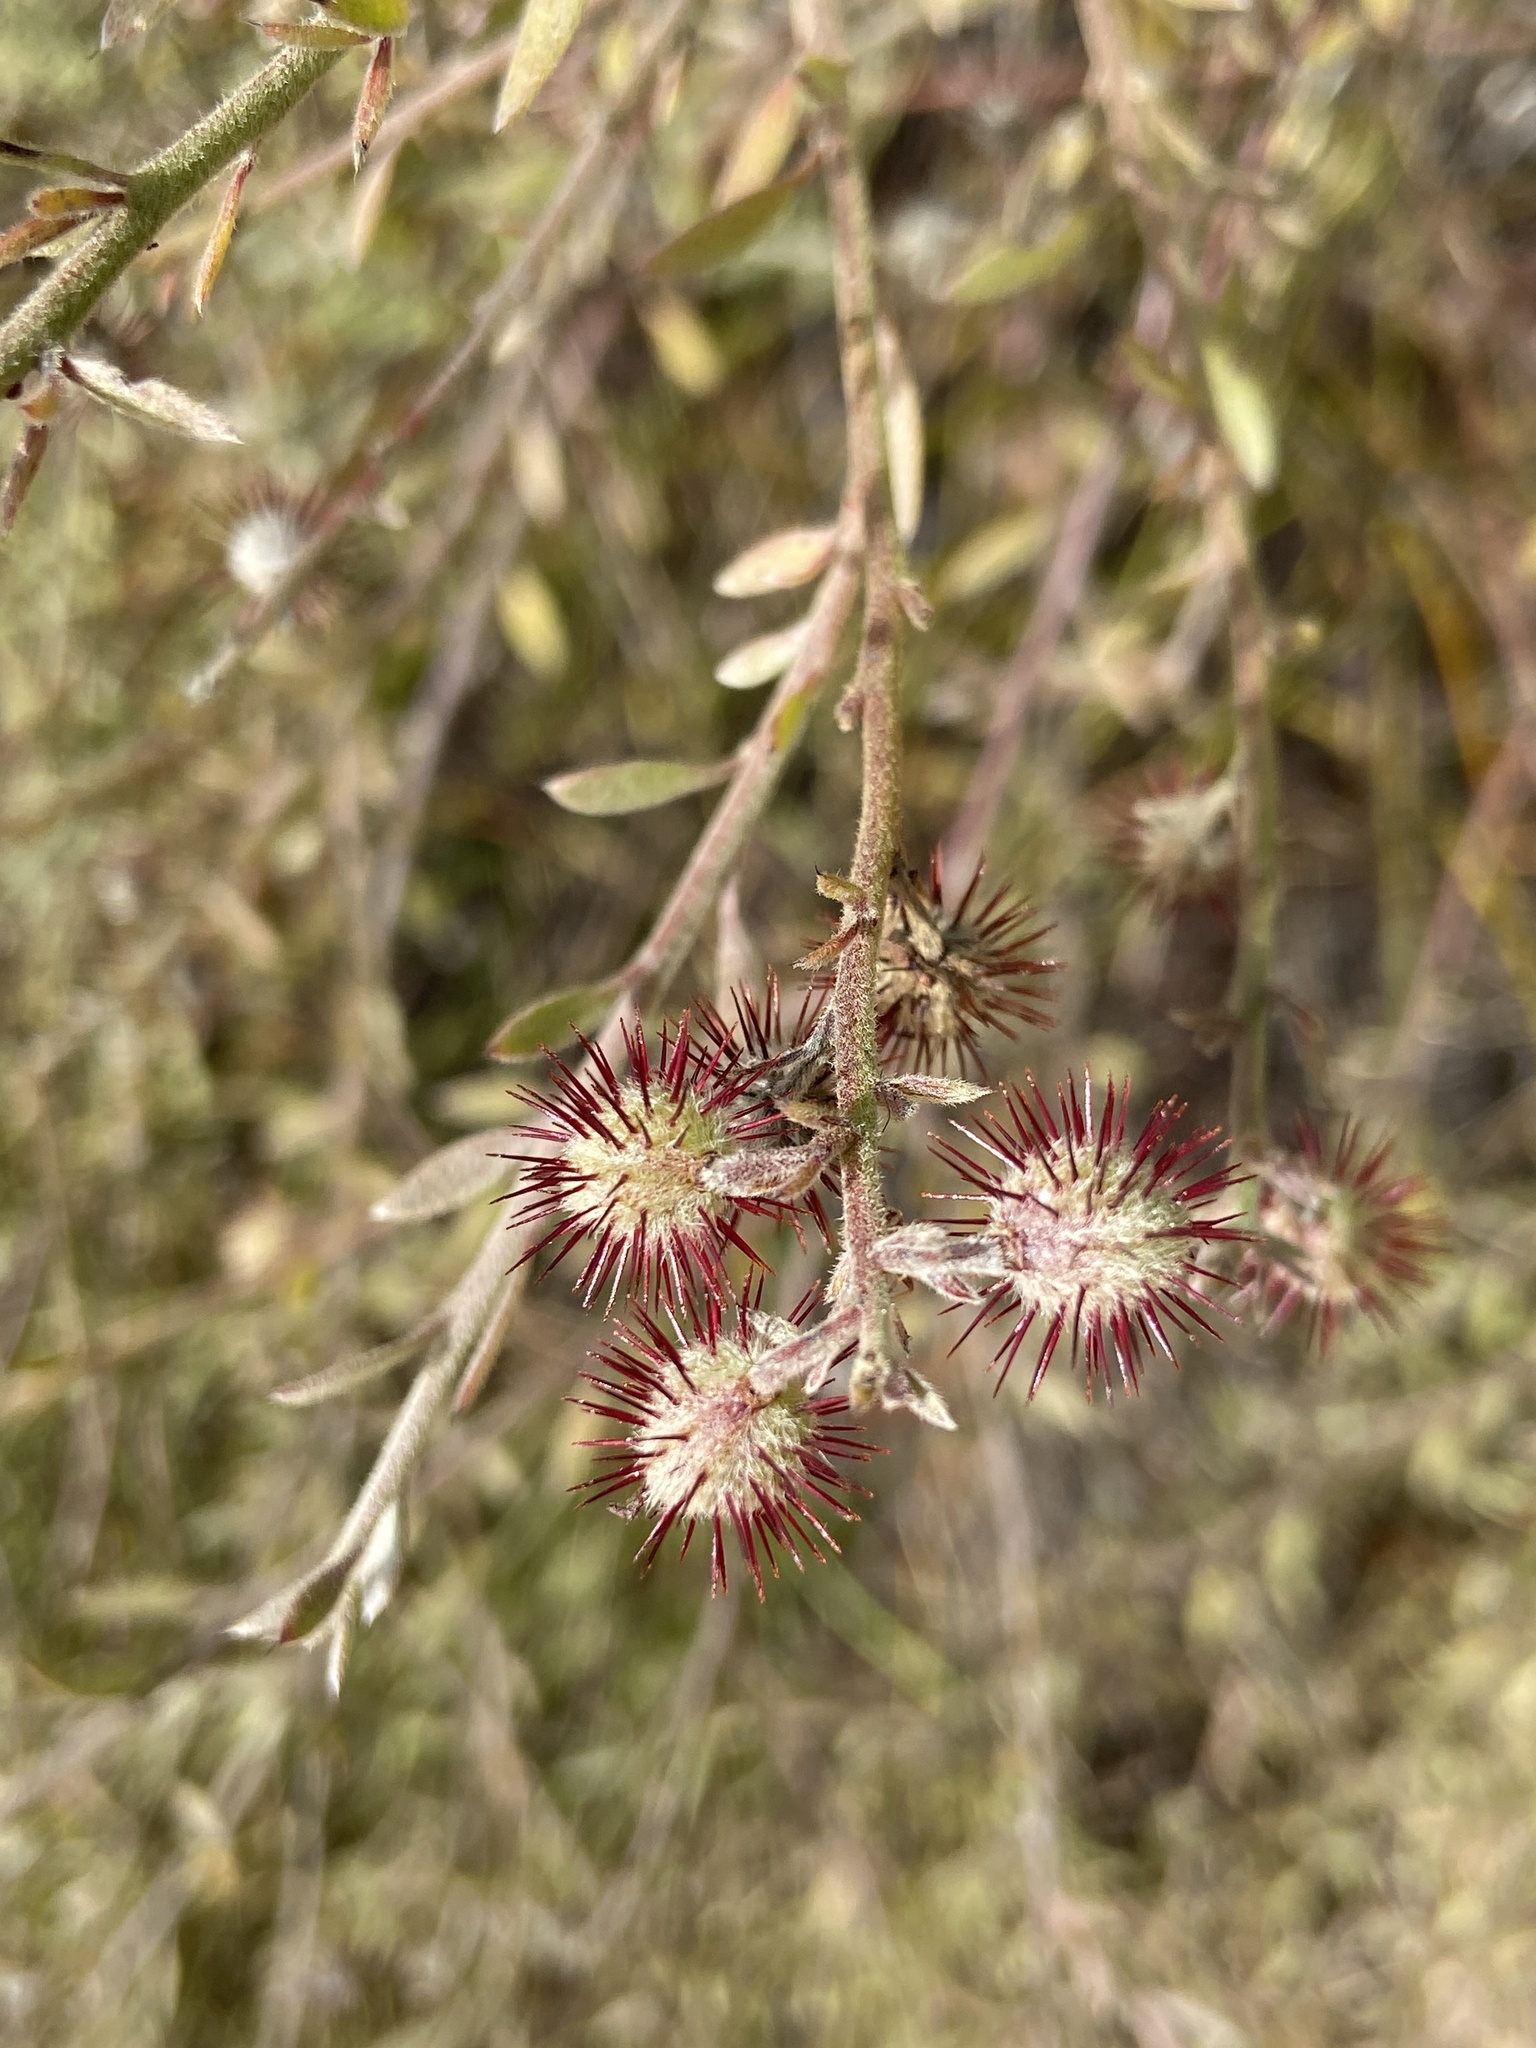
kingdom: Plantae
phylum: Tracheophyta
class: Magnoliopsida
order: Zygophyllales
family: Krameriaceae
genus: Krameria
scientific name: Krameria ixine
